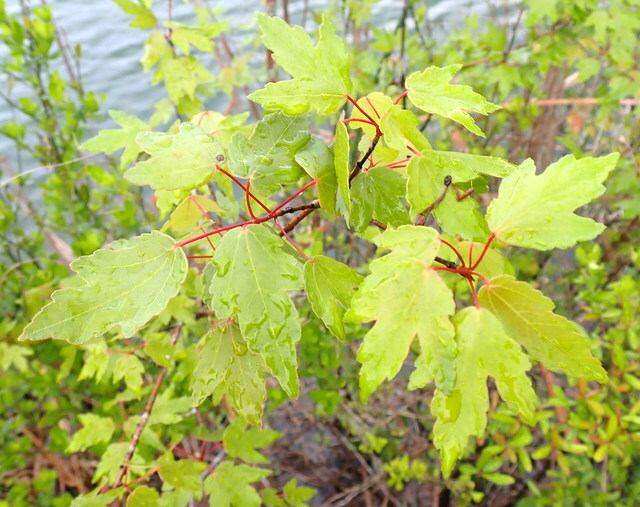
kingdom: Plantae
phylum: Tracheophyta
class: Magnoliopsida
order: Sapindales
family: Sapindaceae
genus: Acer
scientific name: Acer rubrum
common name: Red maple
